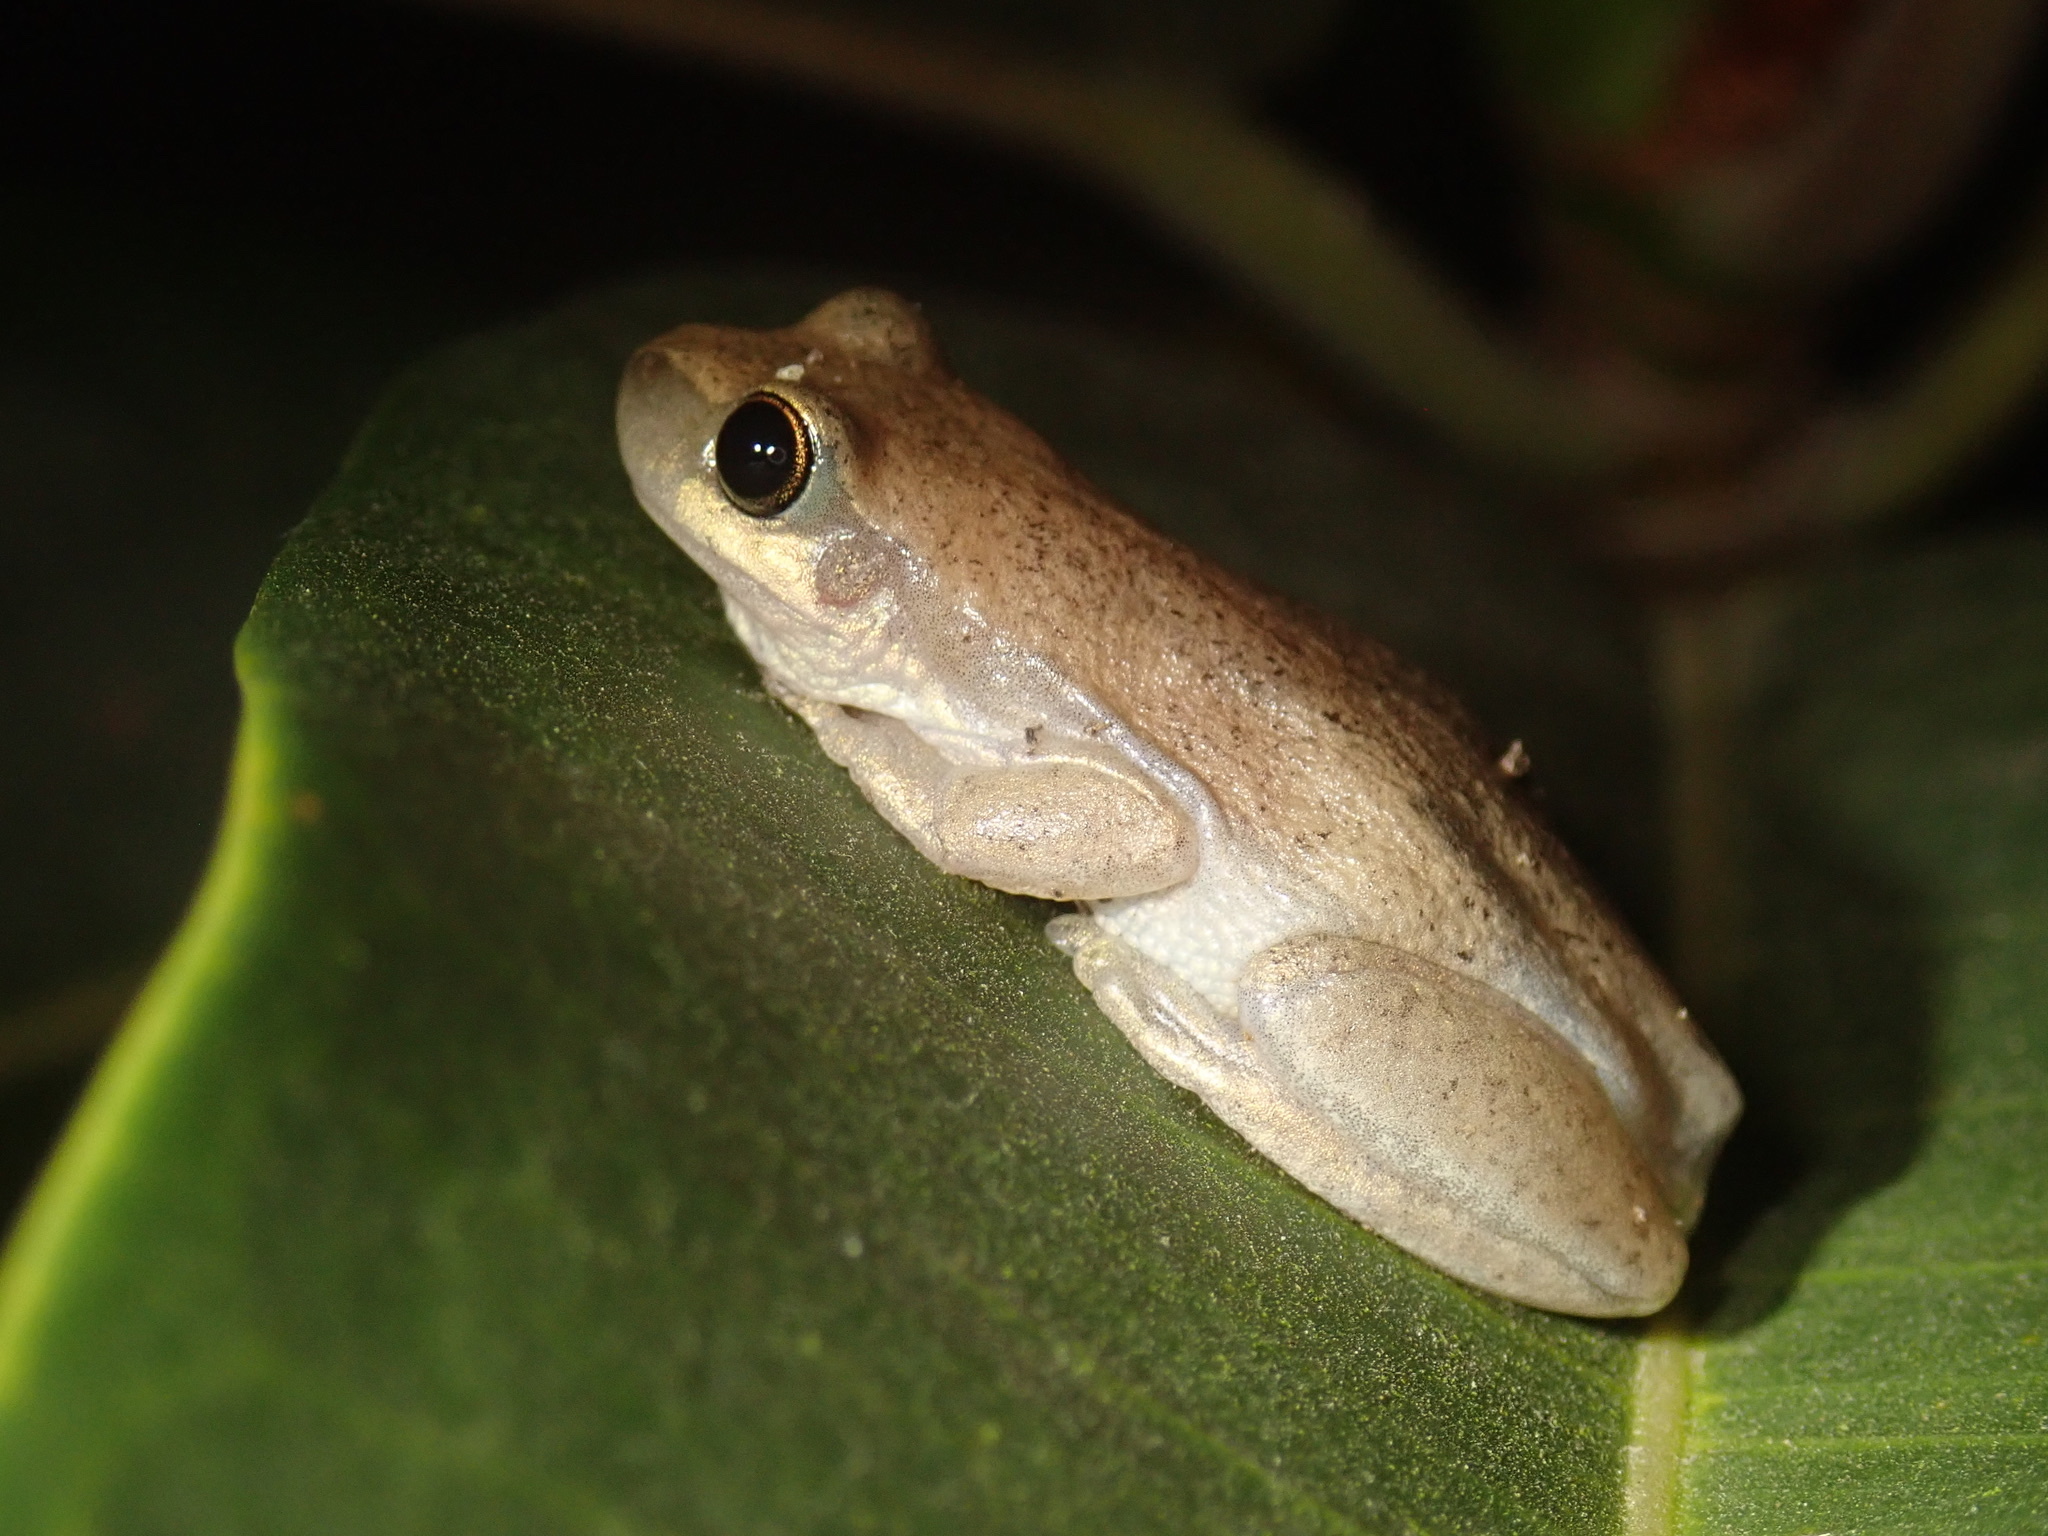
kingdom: Animalia
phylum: Chordata
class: Amphibia
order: Anura
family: Pelodryadidae
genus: Litoria
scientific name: Litoria rubella
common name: Desert tree frog
